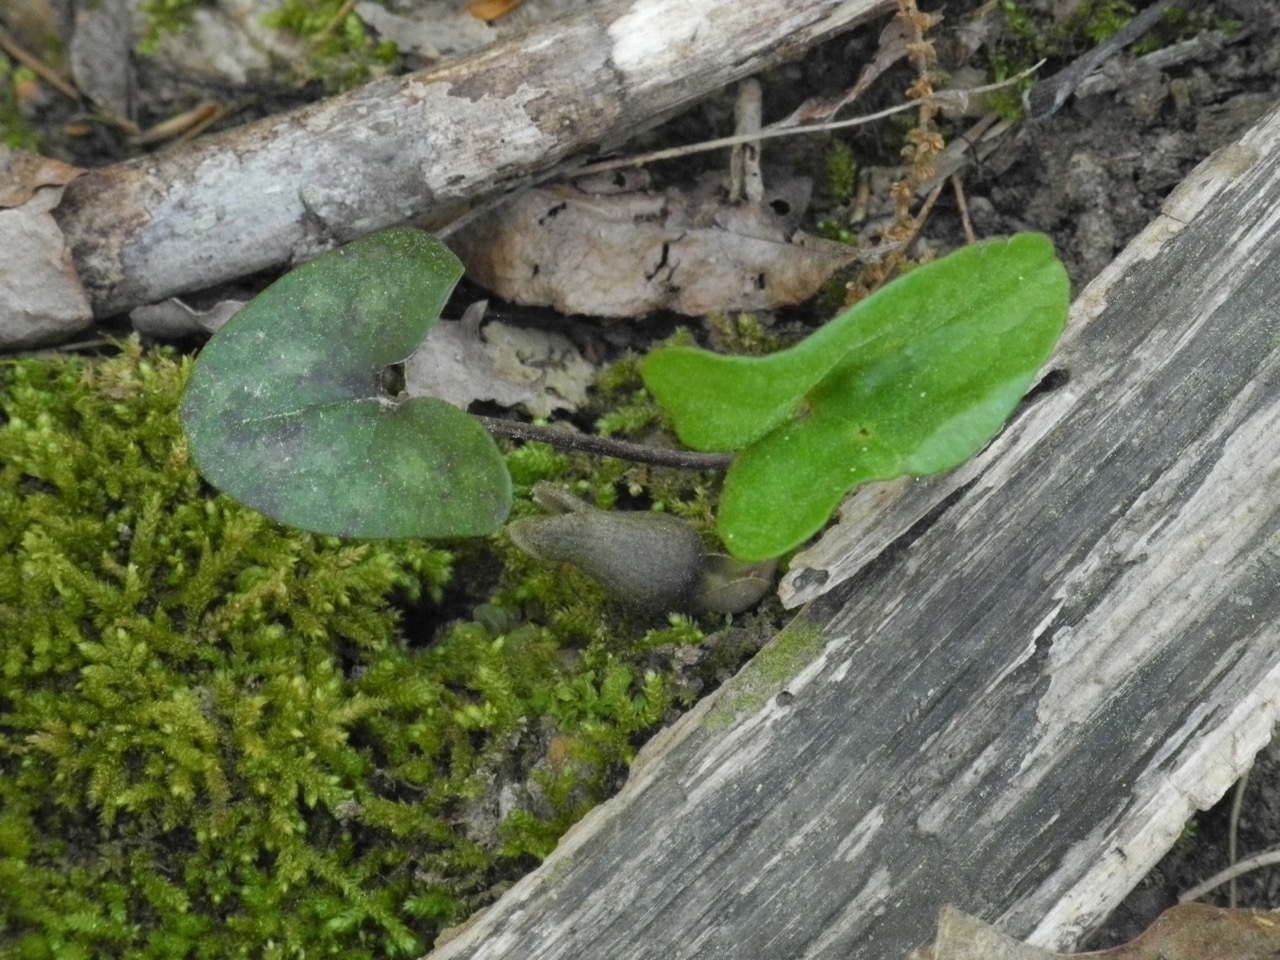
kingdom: Plantae
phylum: Tracheophyta
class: Magnoliopsida
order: Piperales
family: Aristolochiaceae
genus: Hexastylis
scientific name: Hexastylis arifolia
